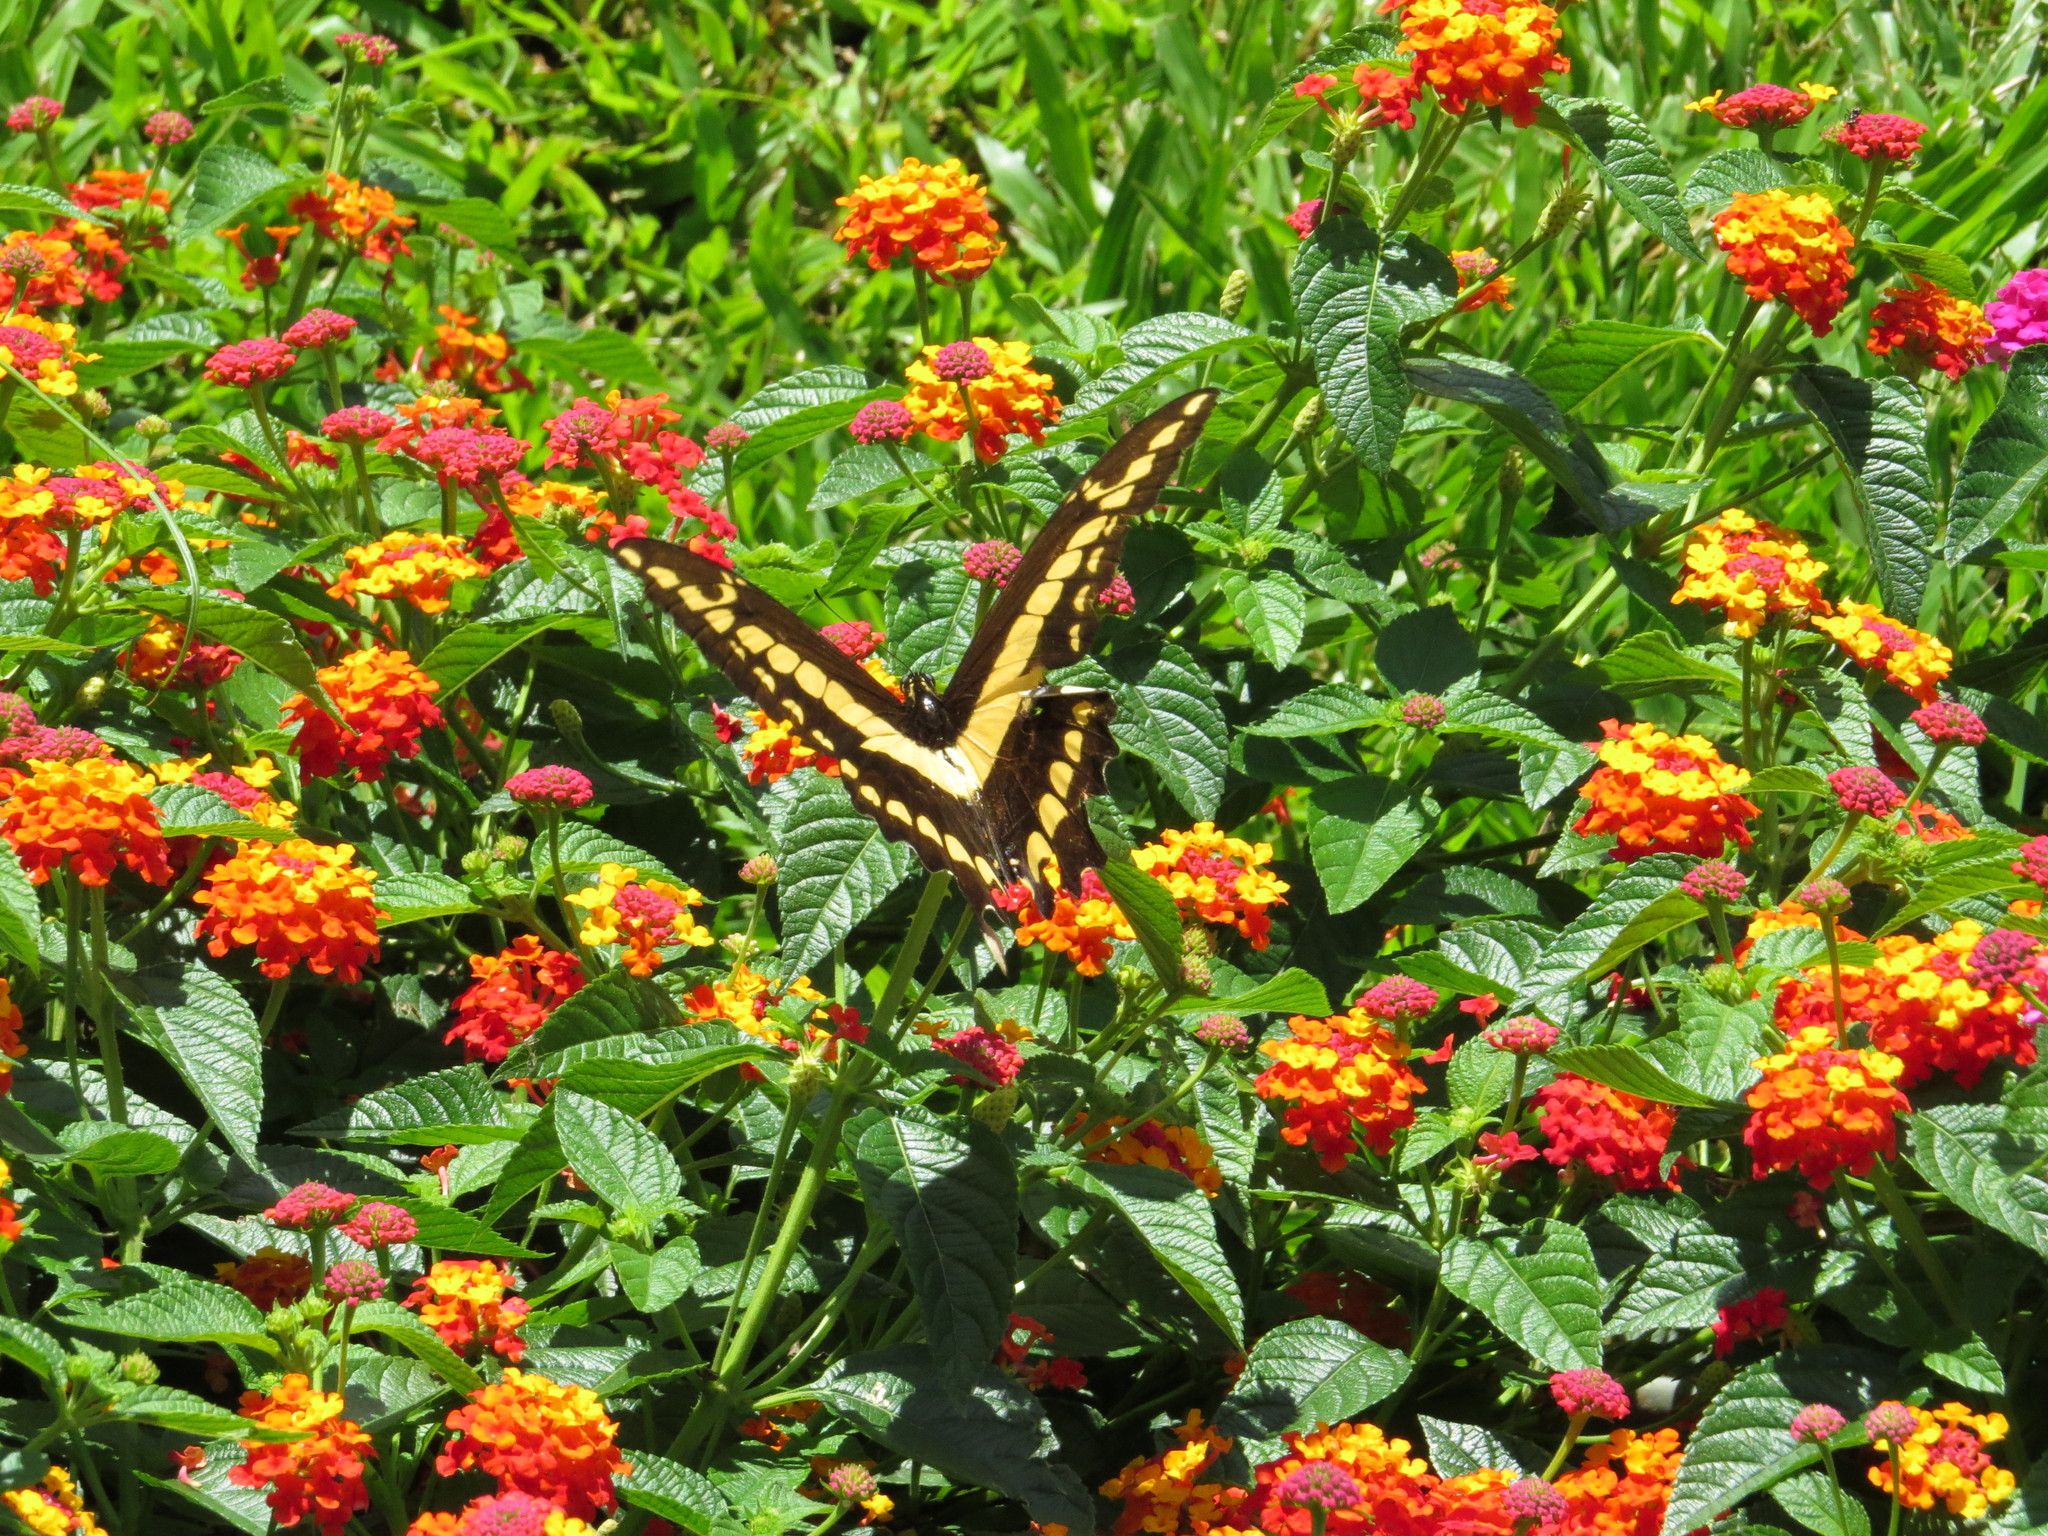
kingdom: Animalia
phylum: Arthropoda
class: Insecta
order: Lepidoptera
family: Papilionidae
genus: Papilio
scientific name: Papilio thoas
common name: King swallowtail
